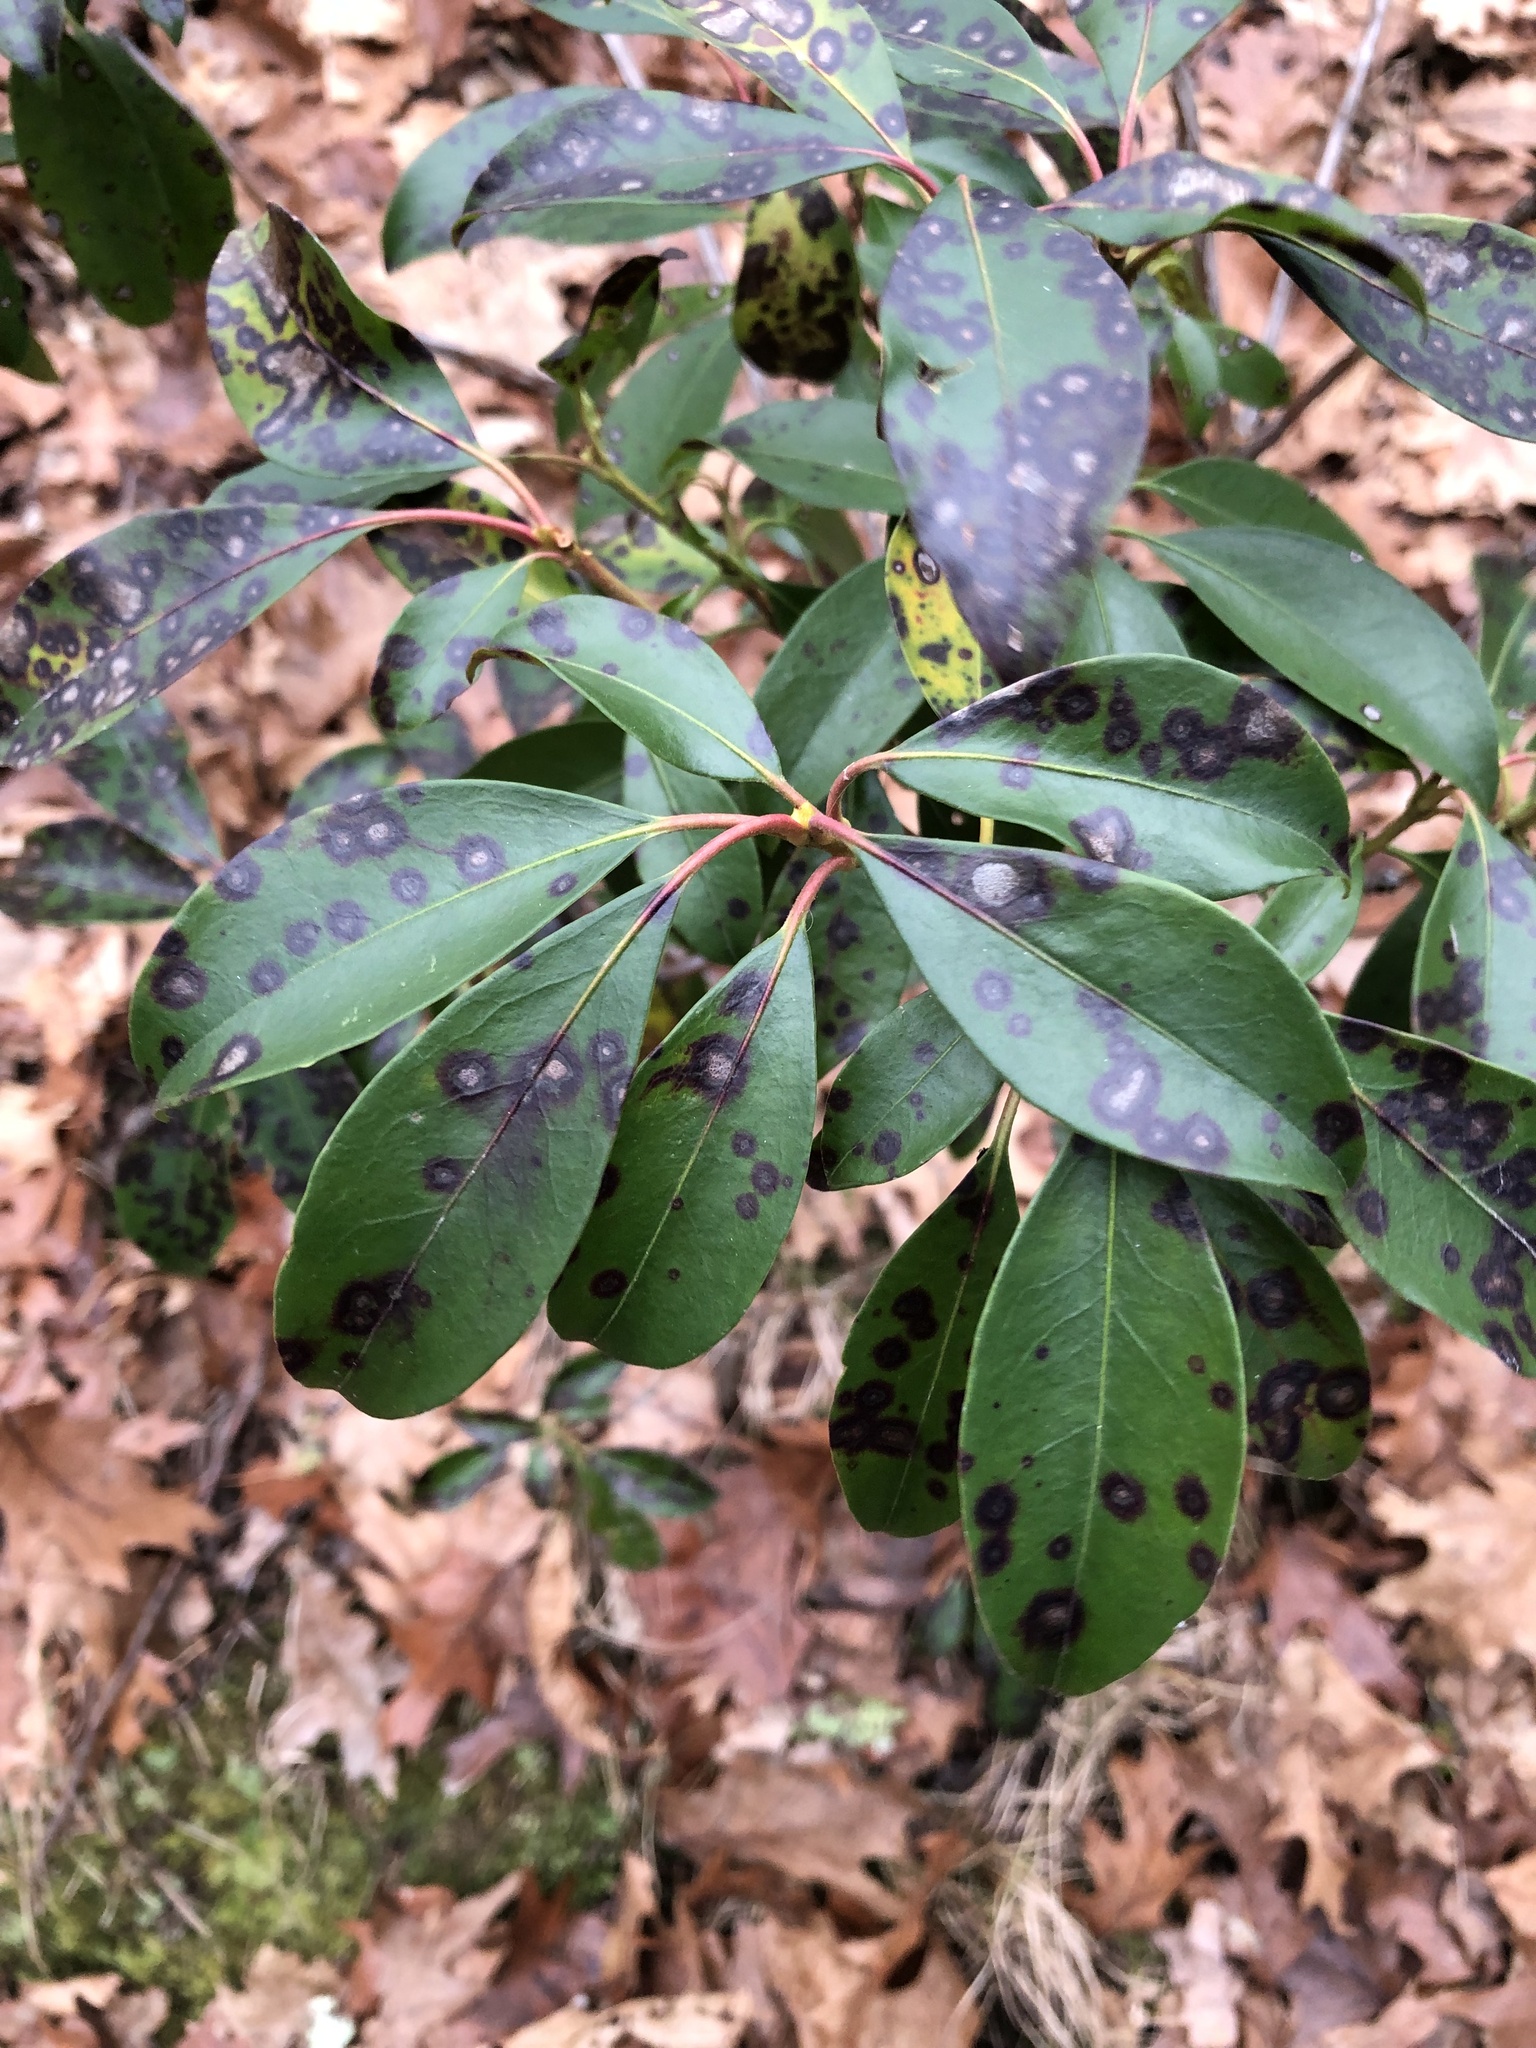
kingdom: Plantae
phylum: Tracheophyta
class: Magnoliopsida
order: Ericales
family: Ericaceae
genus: Kalmia
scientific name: Kalmia latifolia
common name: Mountain-laurel
